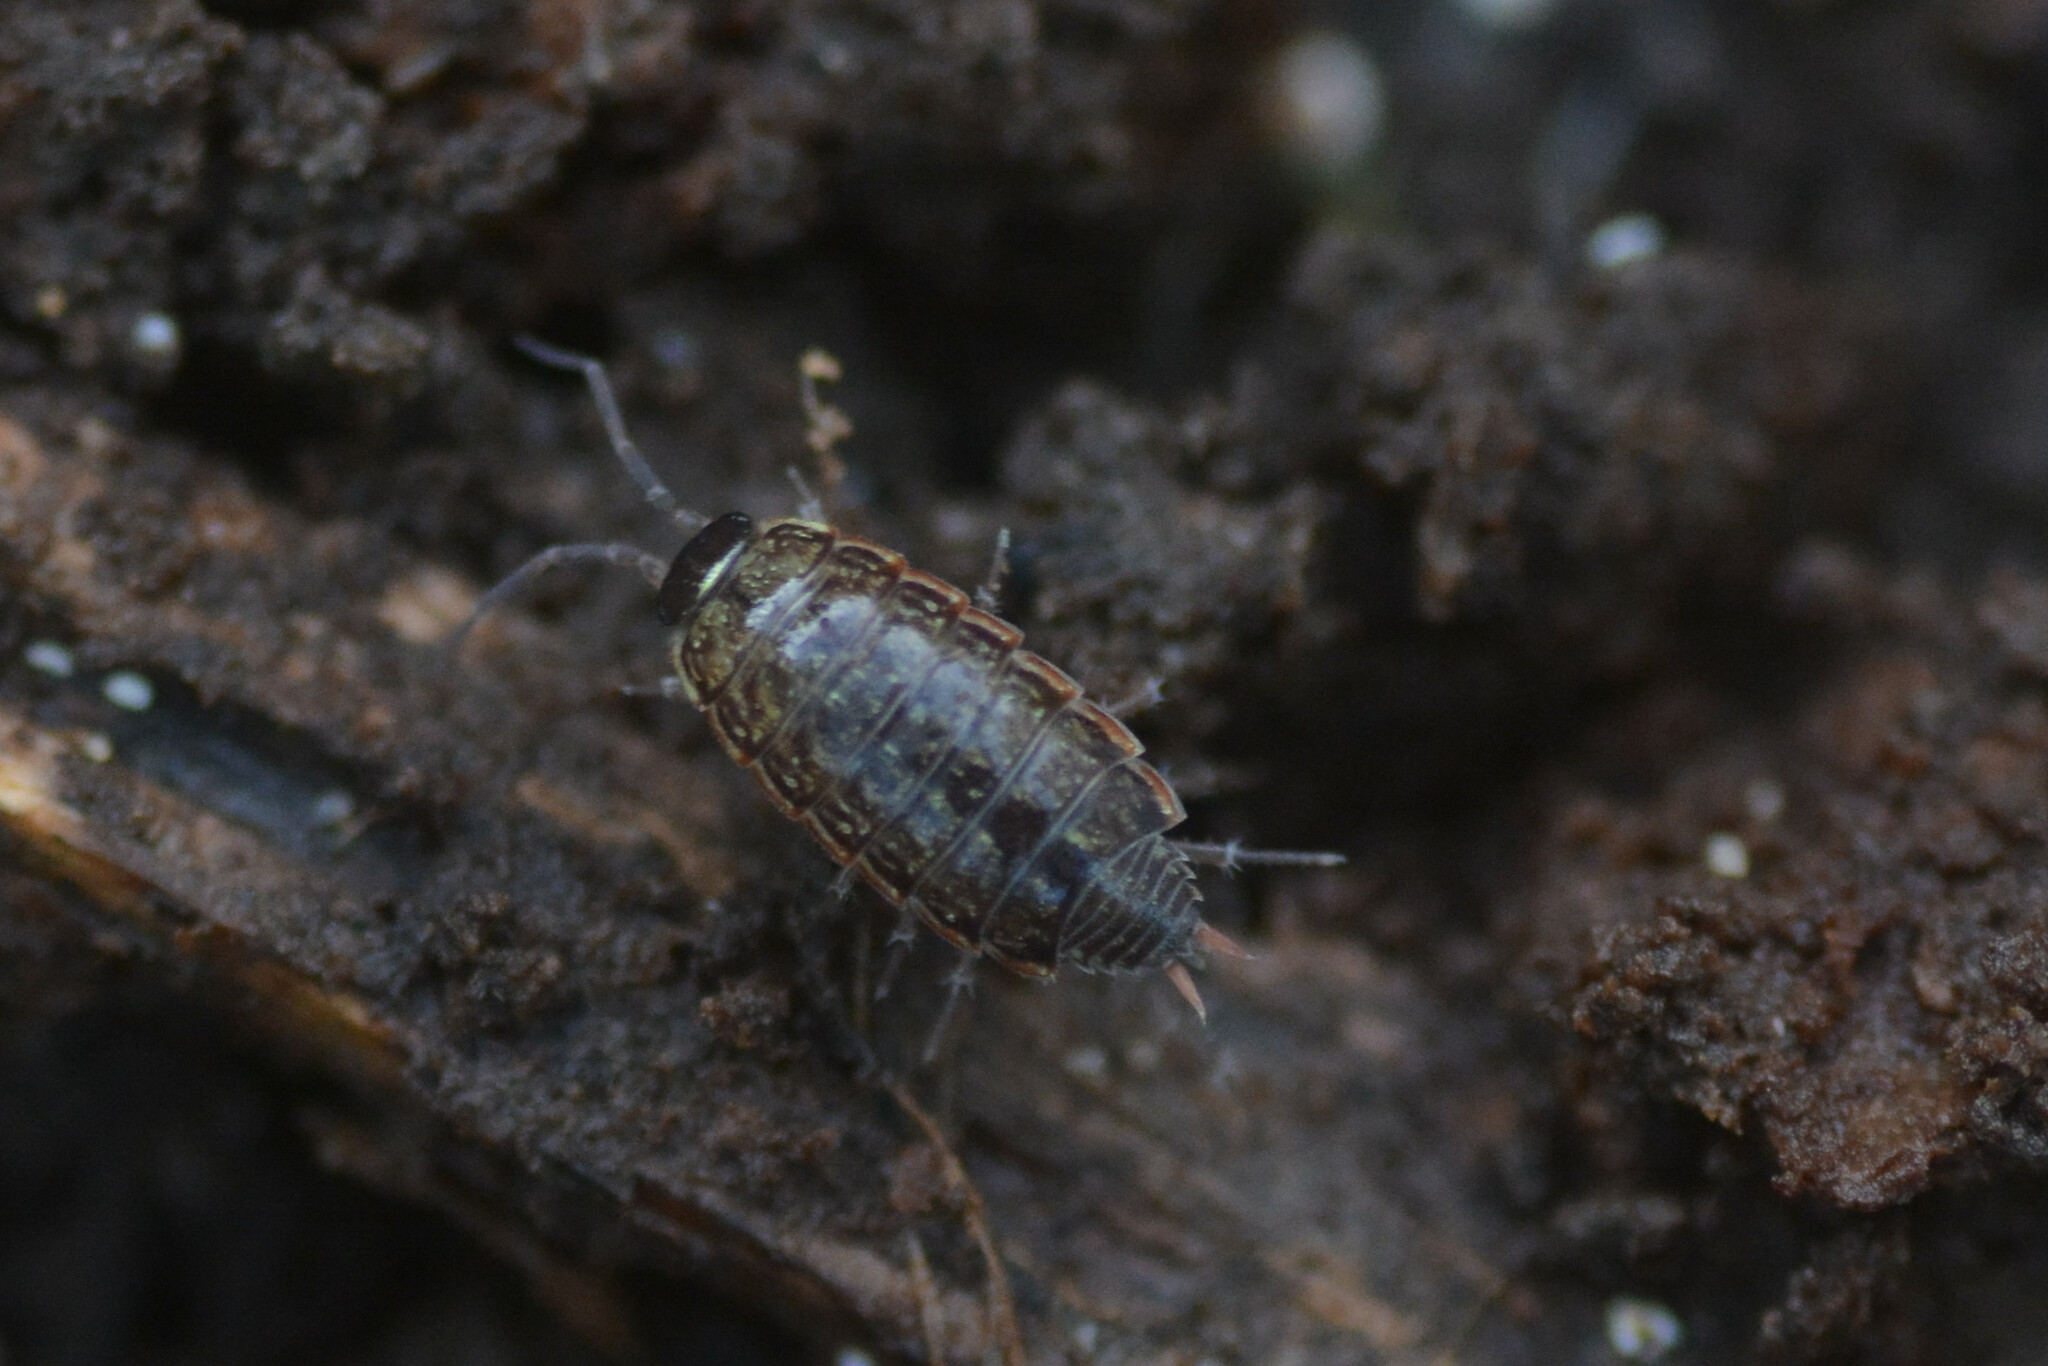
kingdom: Animalia
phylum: Arthropoda
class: Malacostraca
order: Isopoda
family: Philosciidae
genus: Philoscia
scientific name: Philoscia muscorum
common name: Common striped woodlouse
